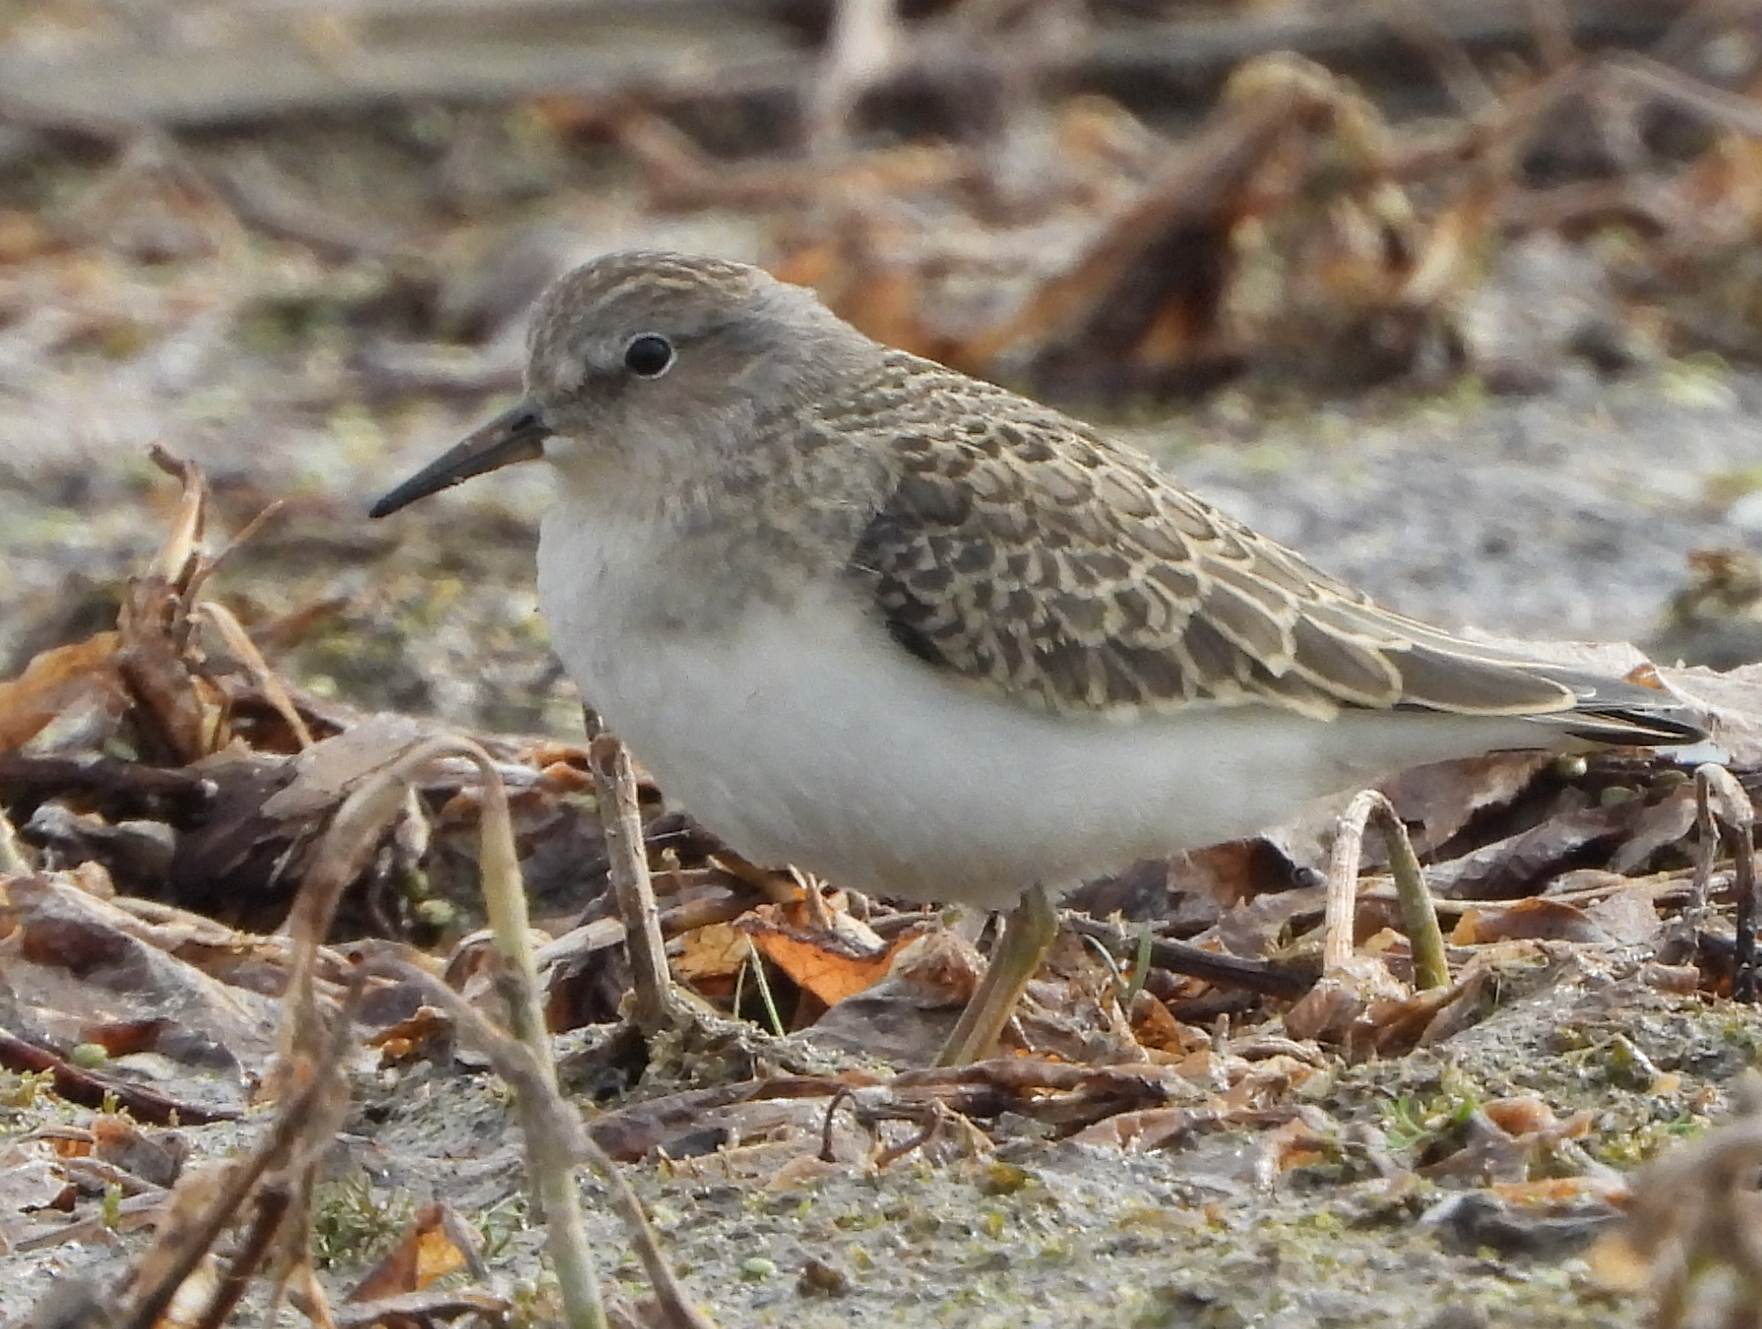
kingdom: Animalia
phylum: Chordata
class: Aves
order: Charadriiformes
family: Scolopacidae
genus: Calidris
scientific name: Calidris temminckii
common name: Temminck's stint
